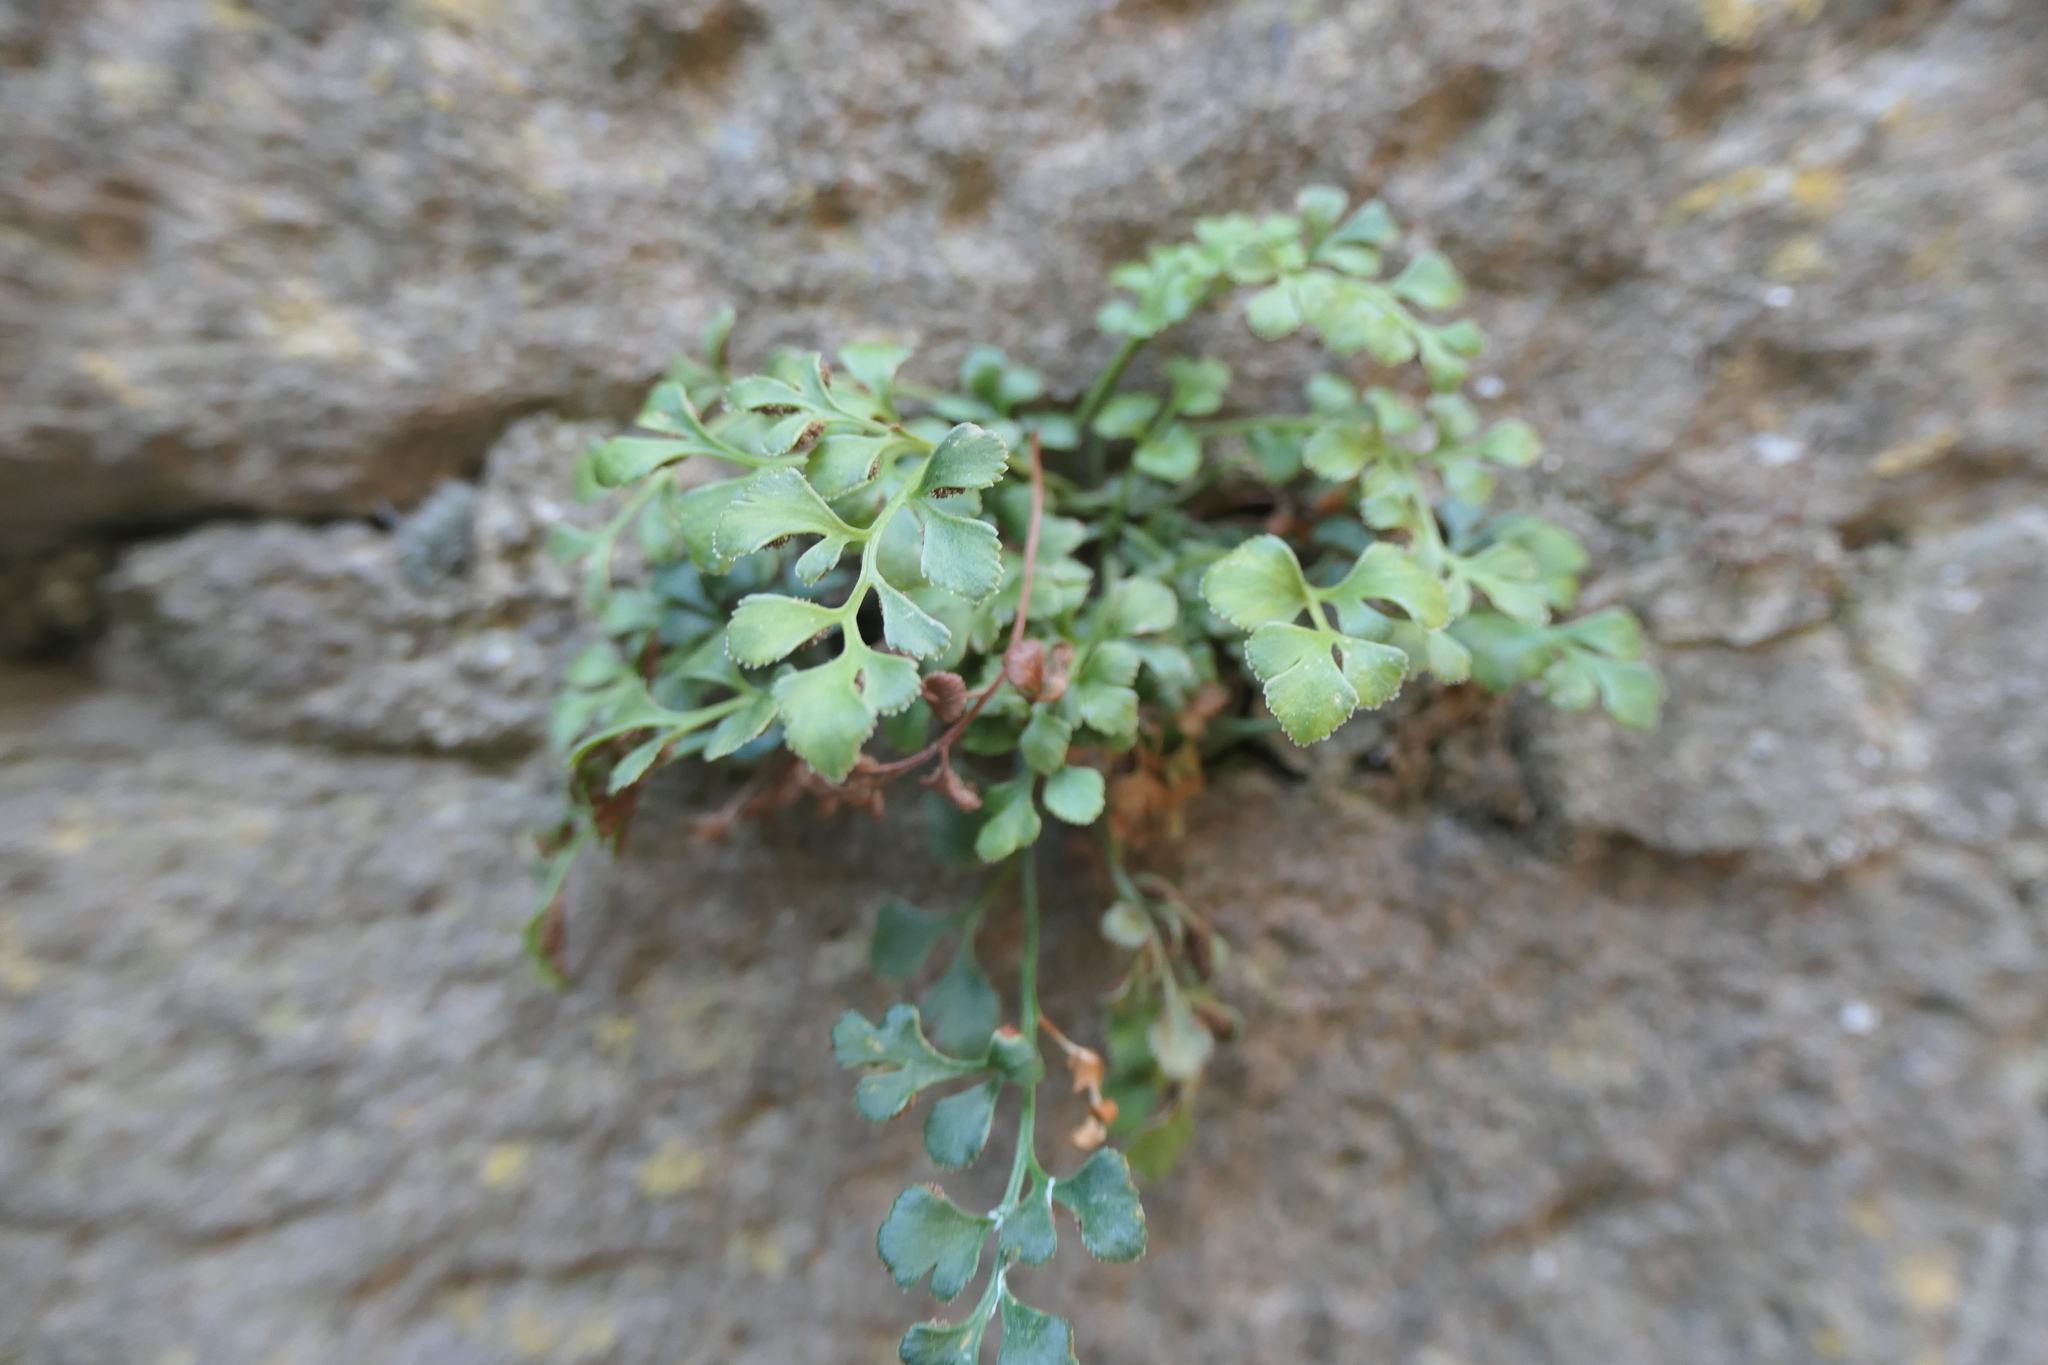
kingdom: Plantae
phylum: Tracheophyta
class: Polypodiopsida
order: Polypodiales
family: Aspleniaceae
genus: Asplenium
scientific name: Asplenium ruta-muraria
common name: Wall-rue
